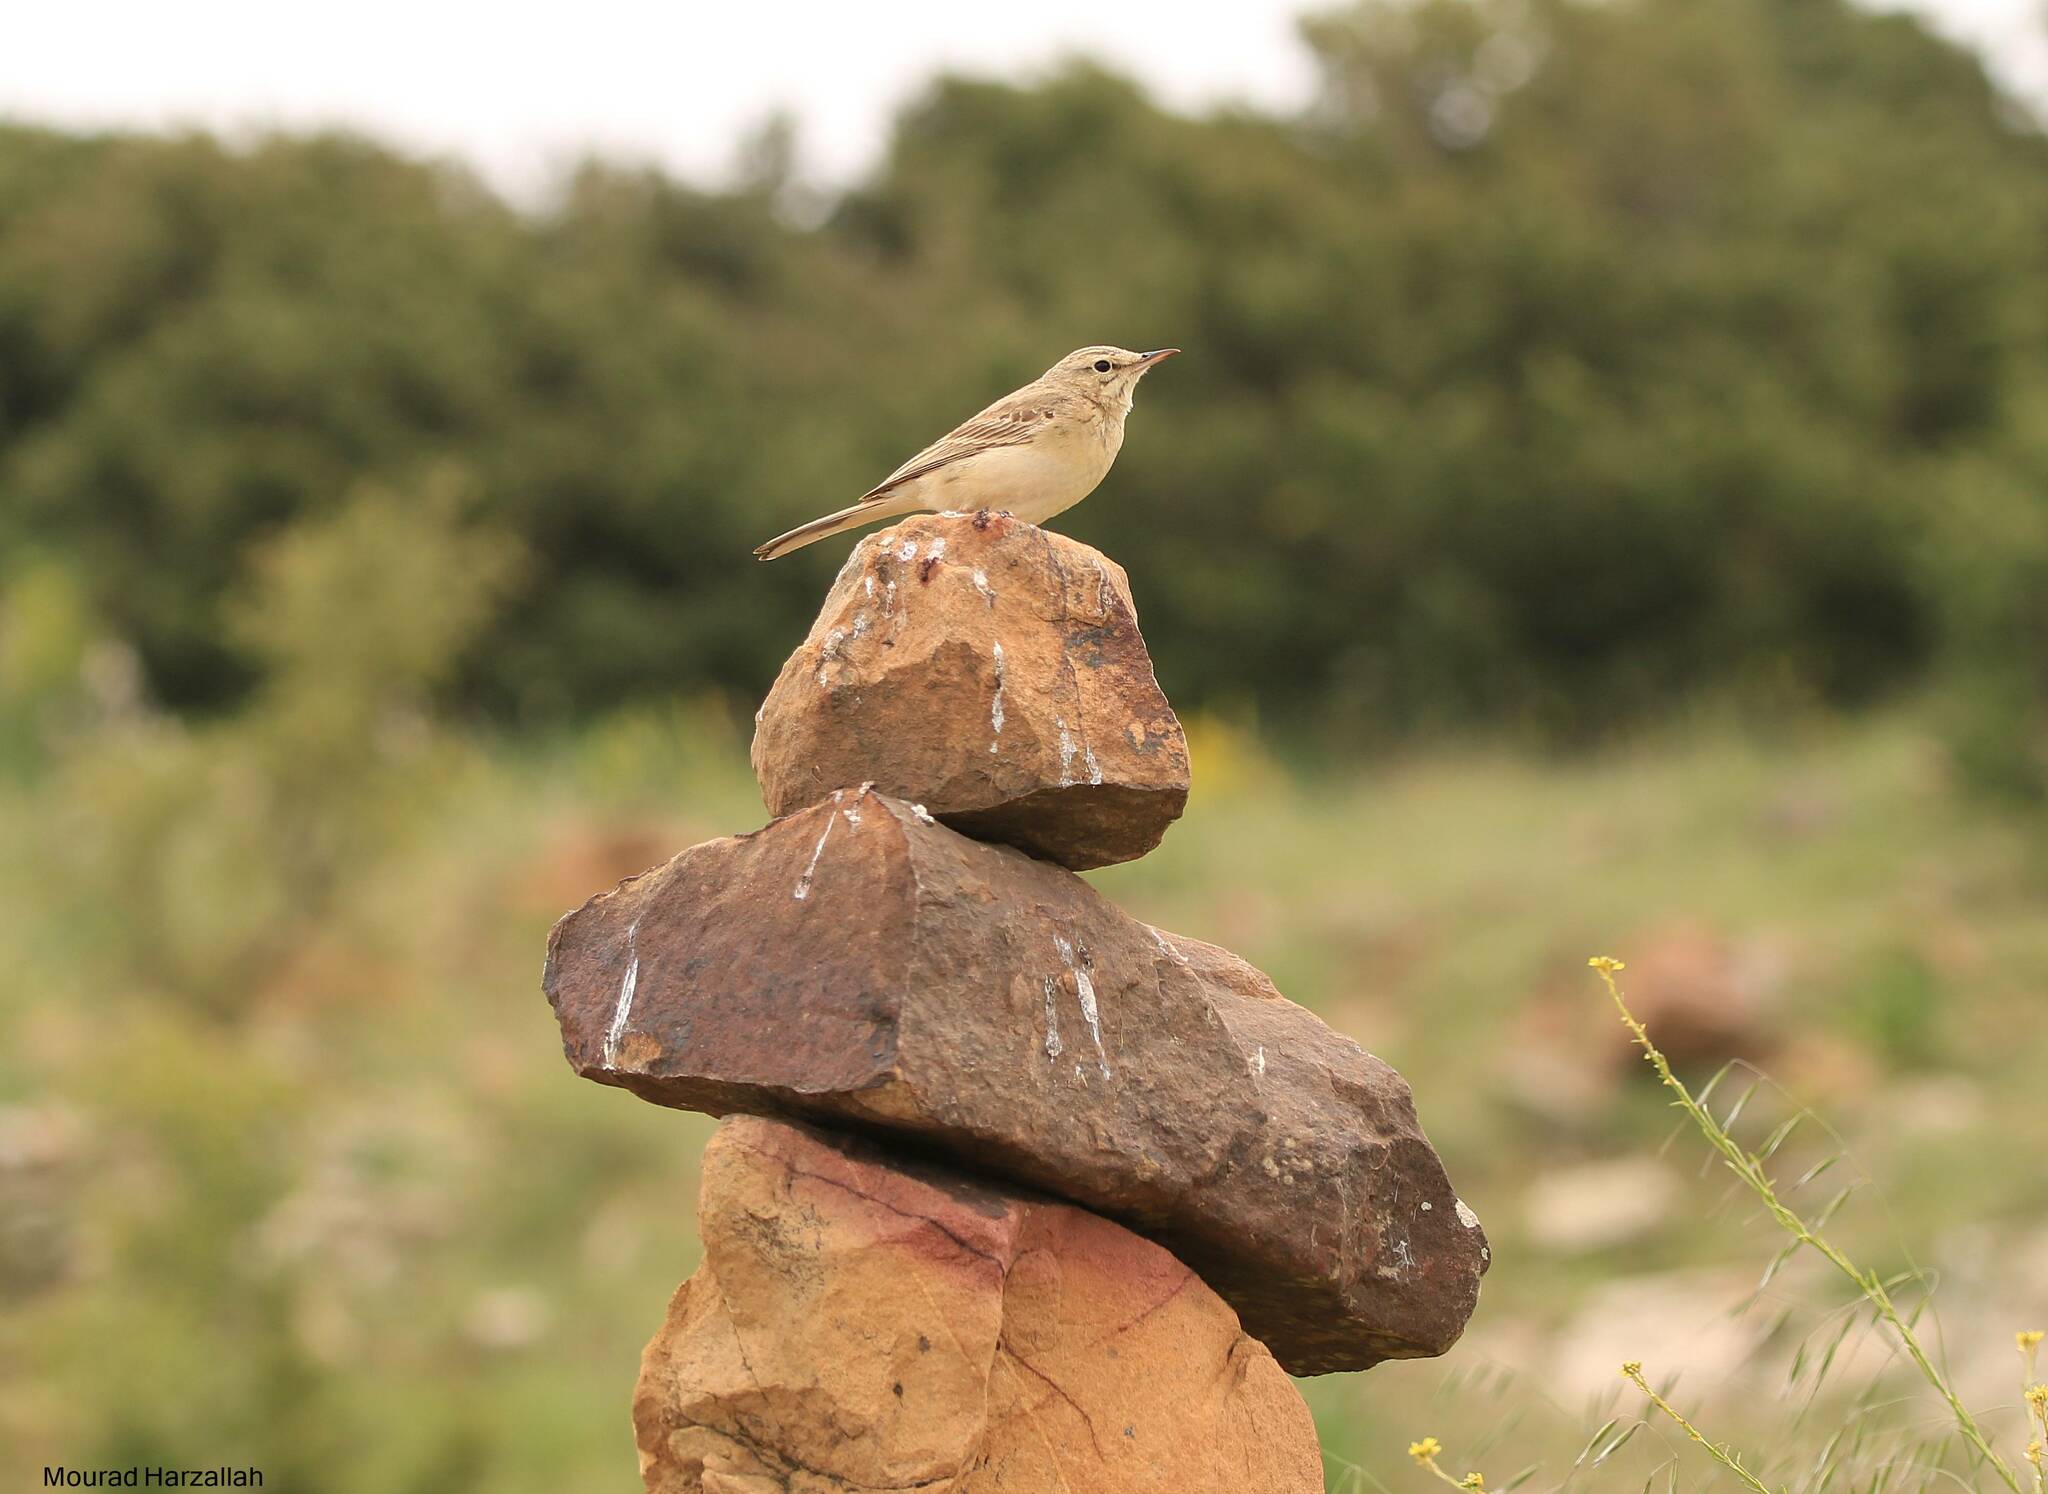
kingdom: Animalia
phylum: Chordata
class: Aves
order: Passeriformes
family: Motacillidae
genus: Anthus
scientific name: Anthus campestris
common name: Tawny pipit
